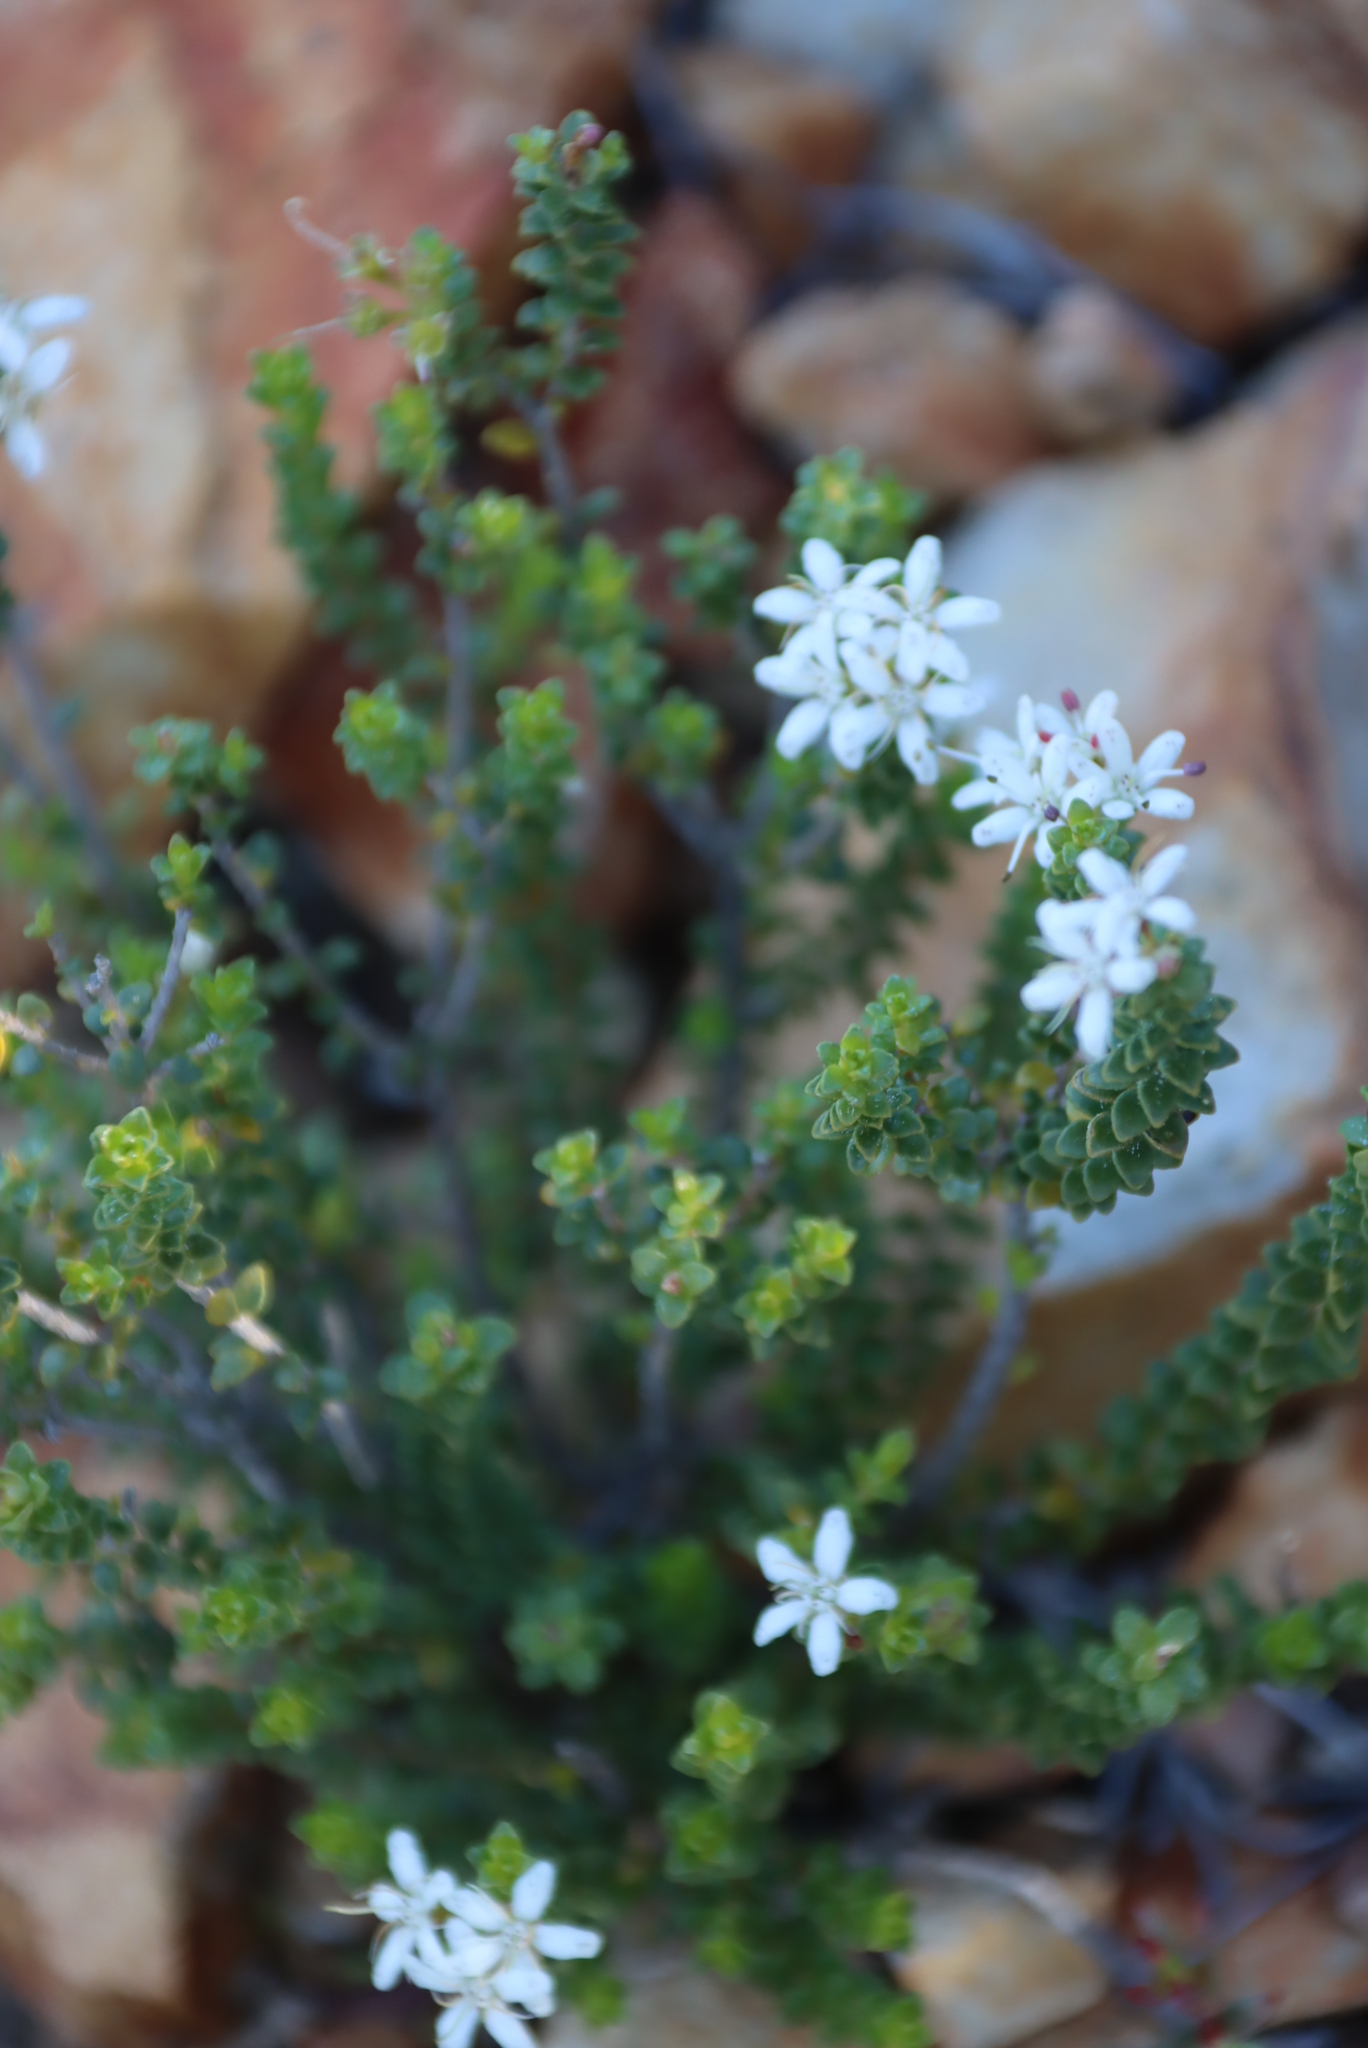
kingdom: Plantae
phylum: Tracheophyta
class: Magnoliopsida
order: Sapindales
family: Rutaceae
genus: Agathosma
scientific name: Agathosma recurvifolia
